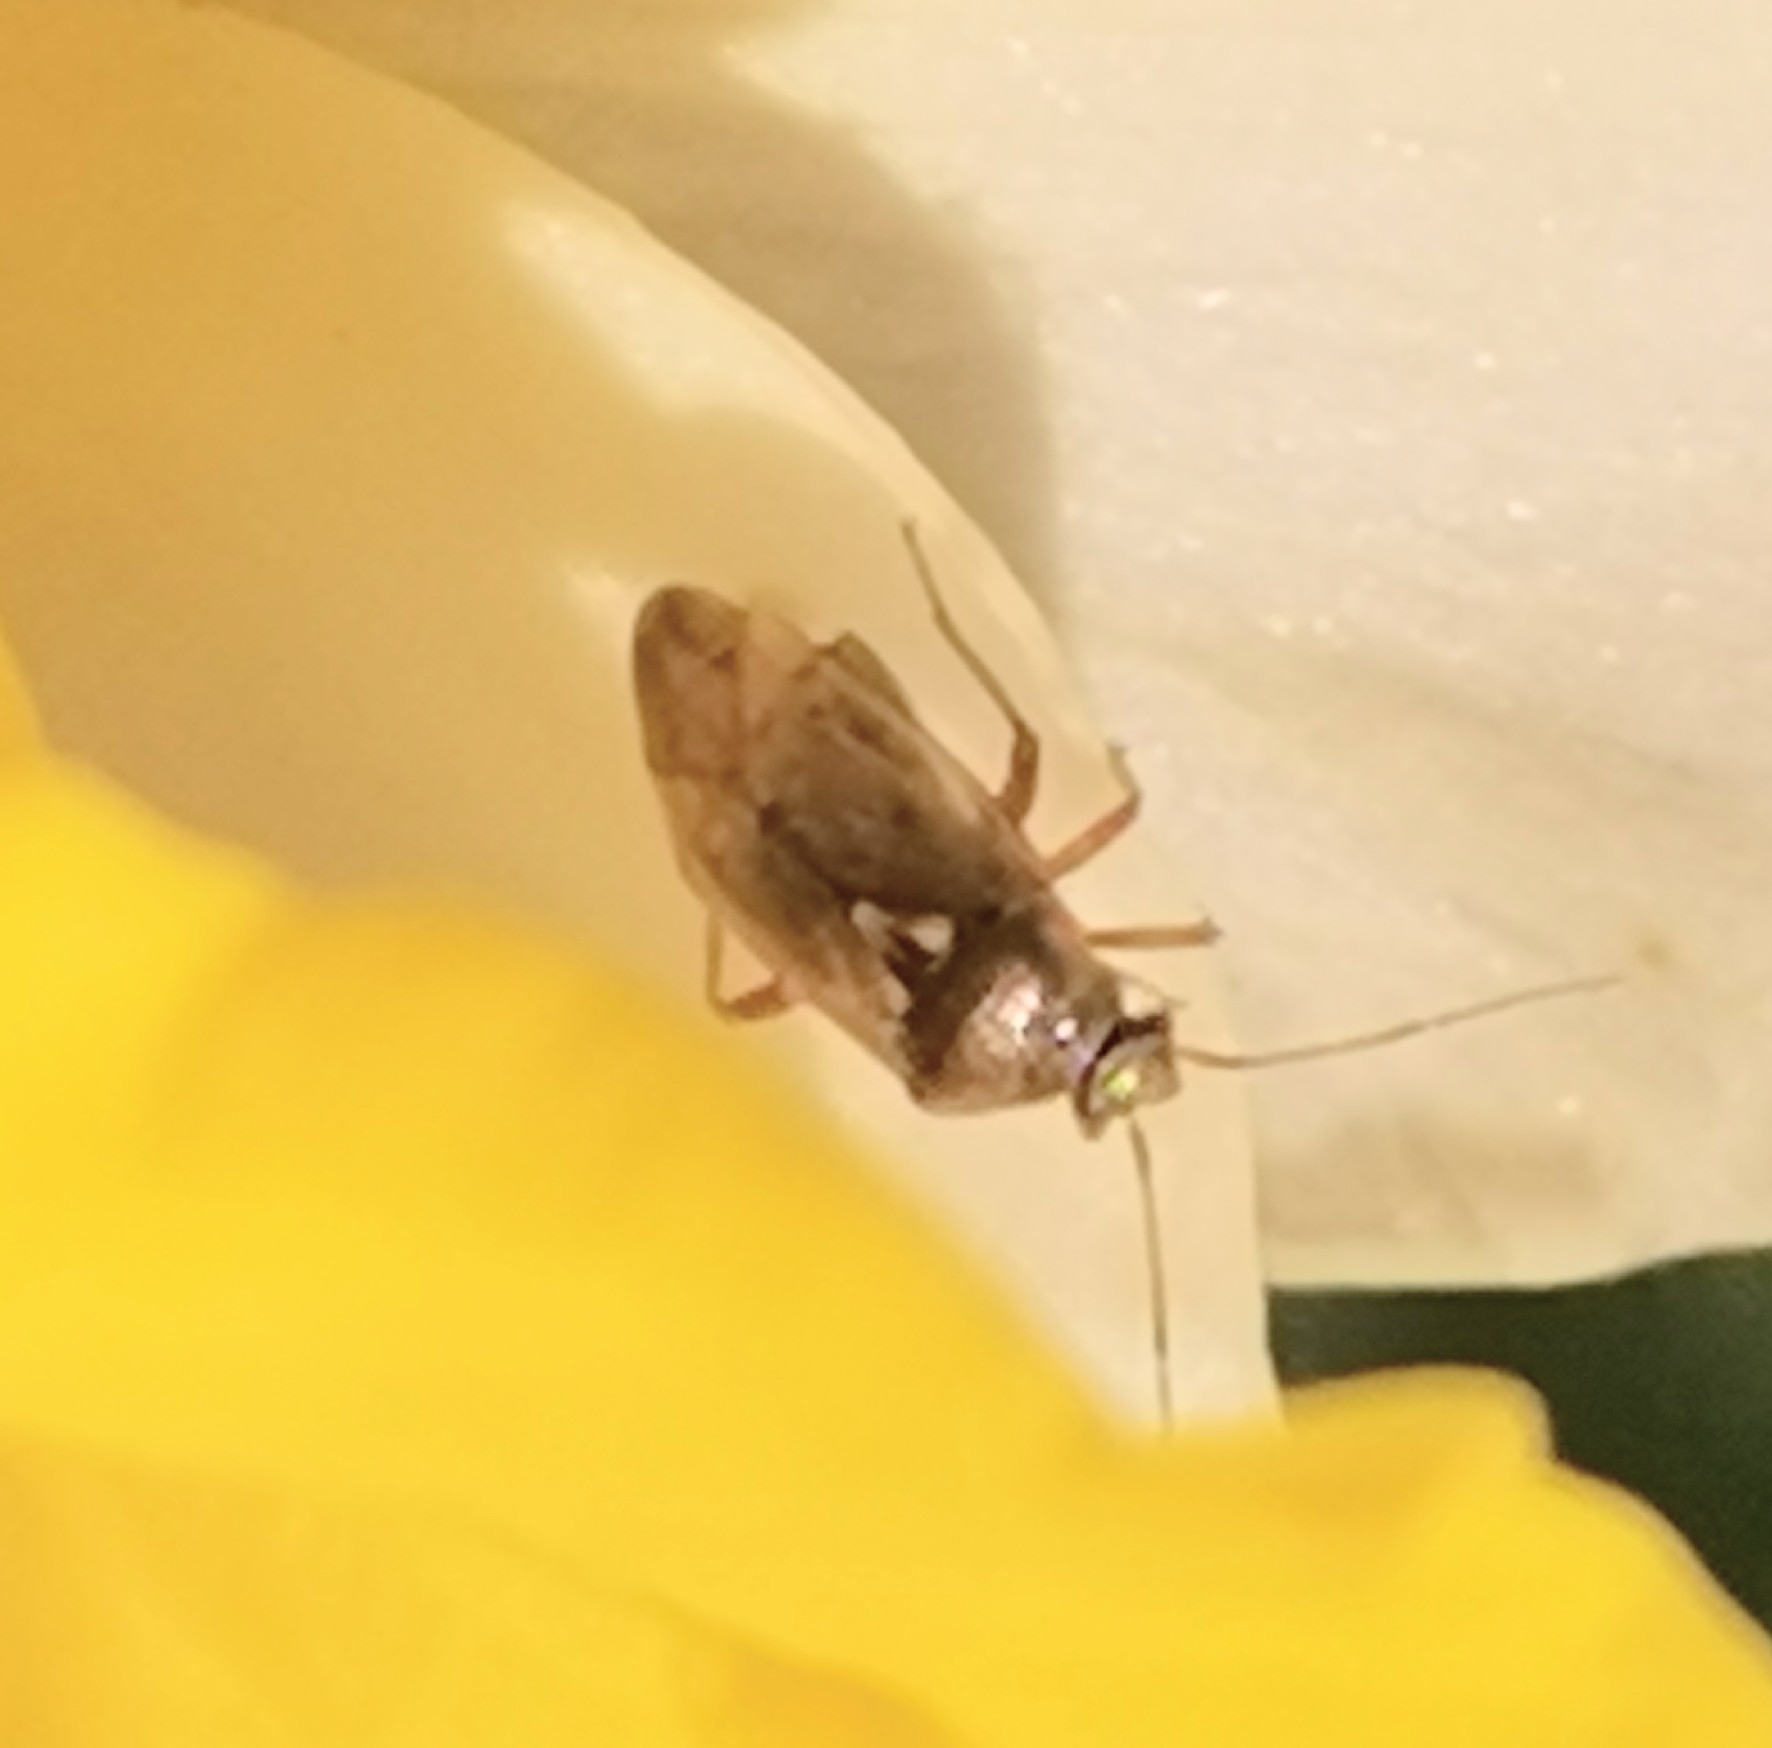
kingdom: Animalia
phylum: Arthropoda
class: Insecta
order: Hemiptera
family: Miridae
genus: Lygus
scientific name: Lygus rugulipennis
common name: European tarnished plant bug
